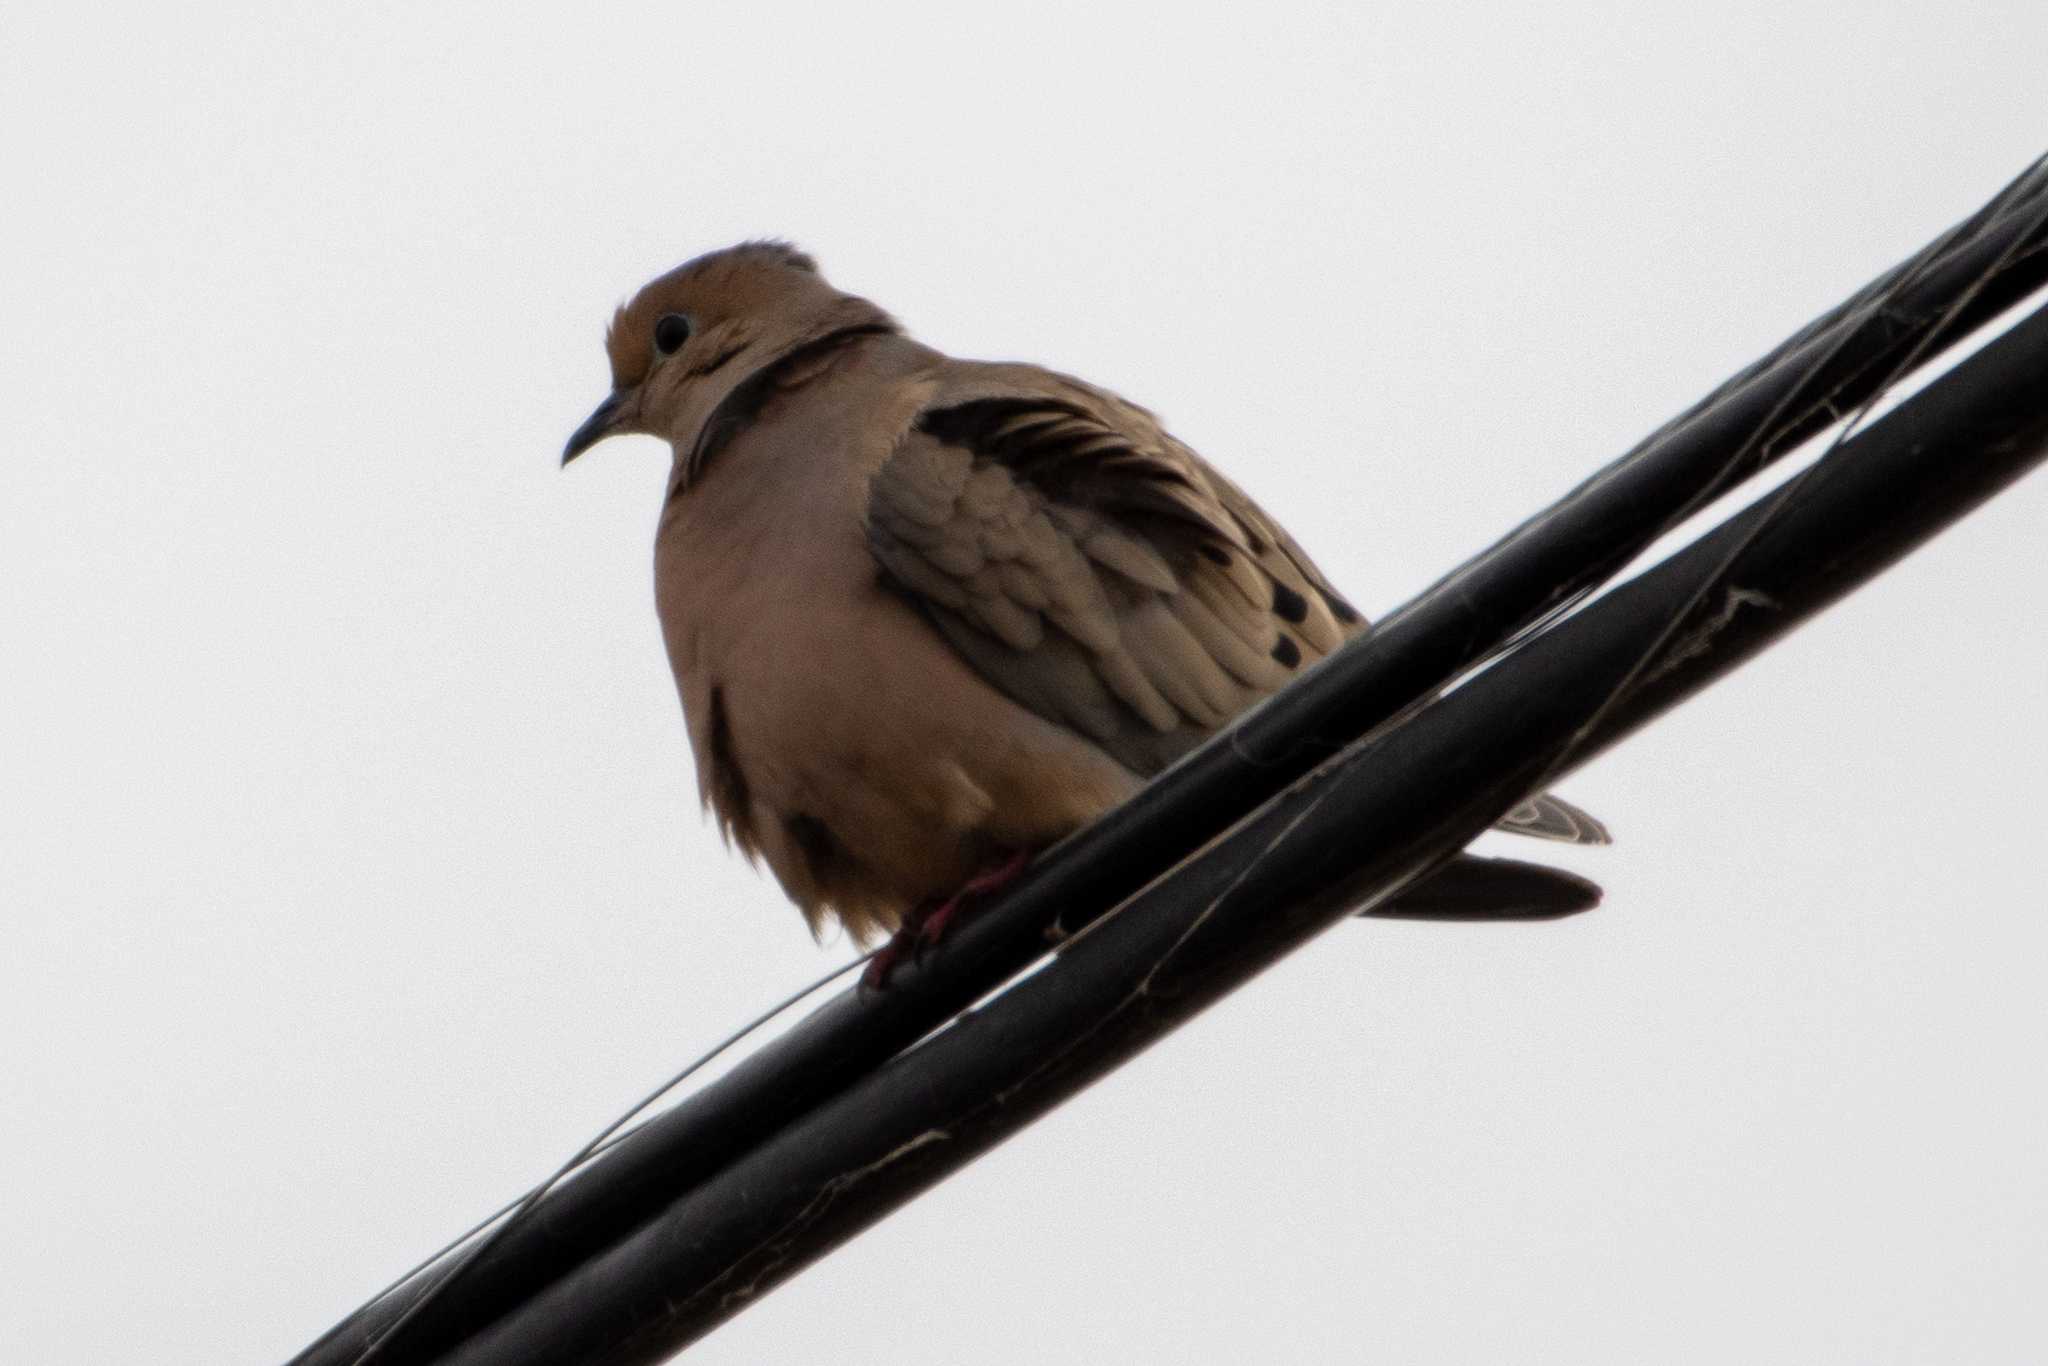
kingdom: Animalia
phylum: Chordata
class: Aves
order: Columbiformes
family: Columbidae
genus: Zenaida
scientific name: Zenaida macroura
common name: Mourning dove
